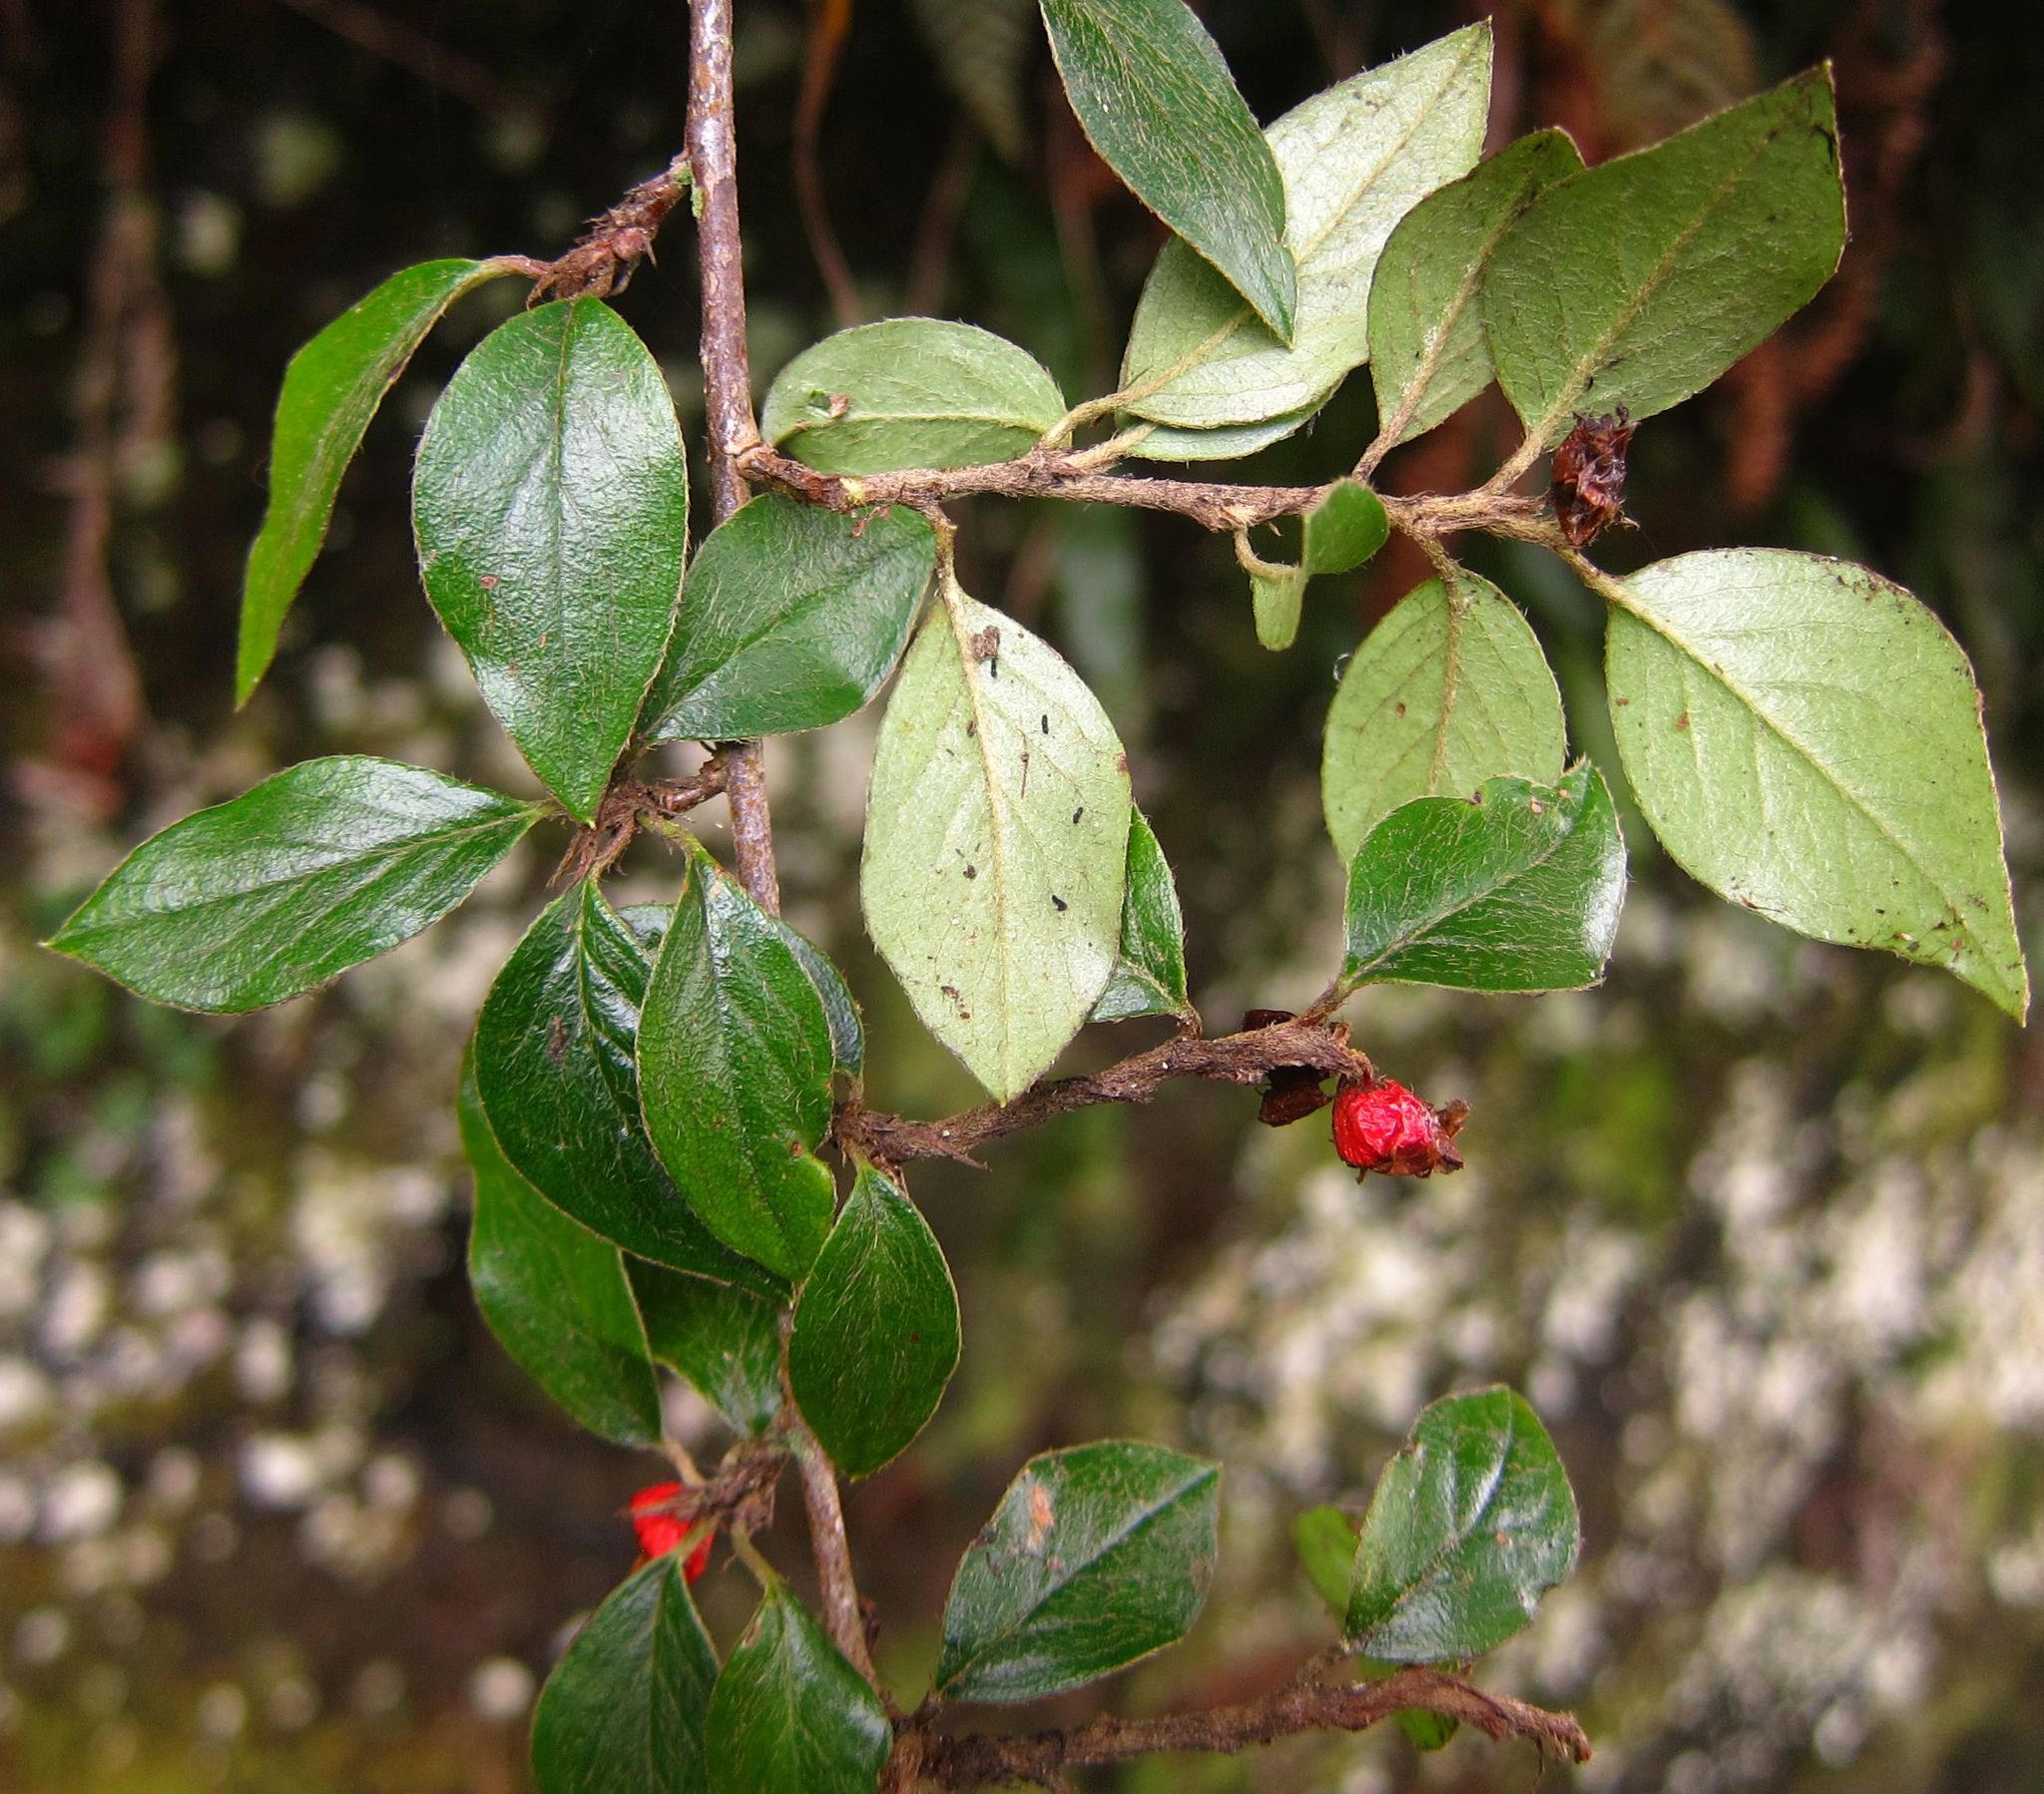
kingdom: Plantae
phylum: Tracheophyta
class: Magnoliopsida
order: Rosales
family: Rosaceae
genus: Cotoneaster
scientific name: Cotoneaster simonsii
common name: Himalayan cotoneaster
